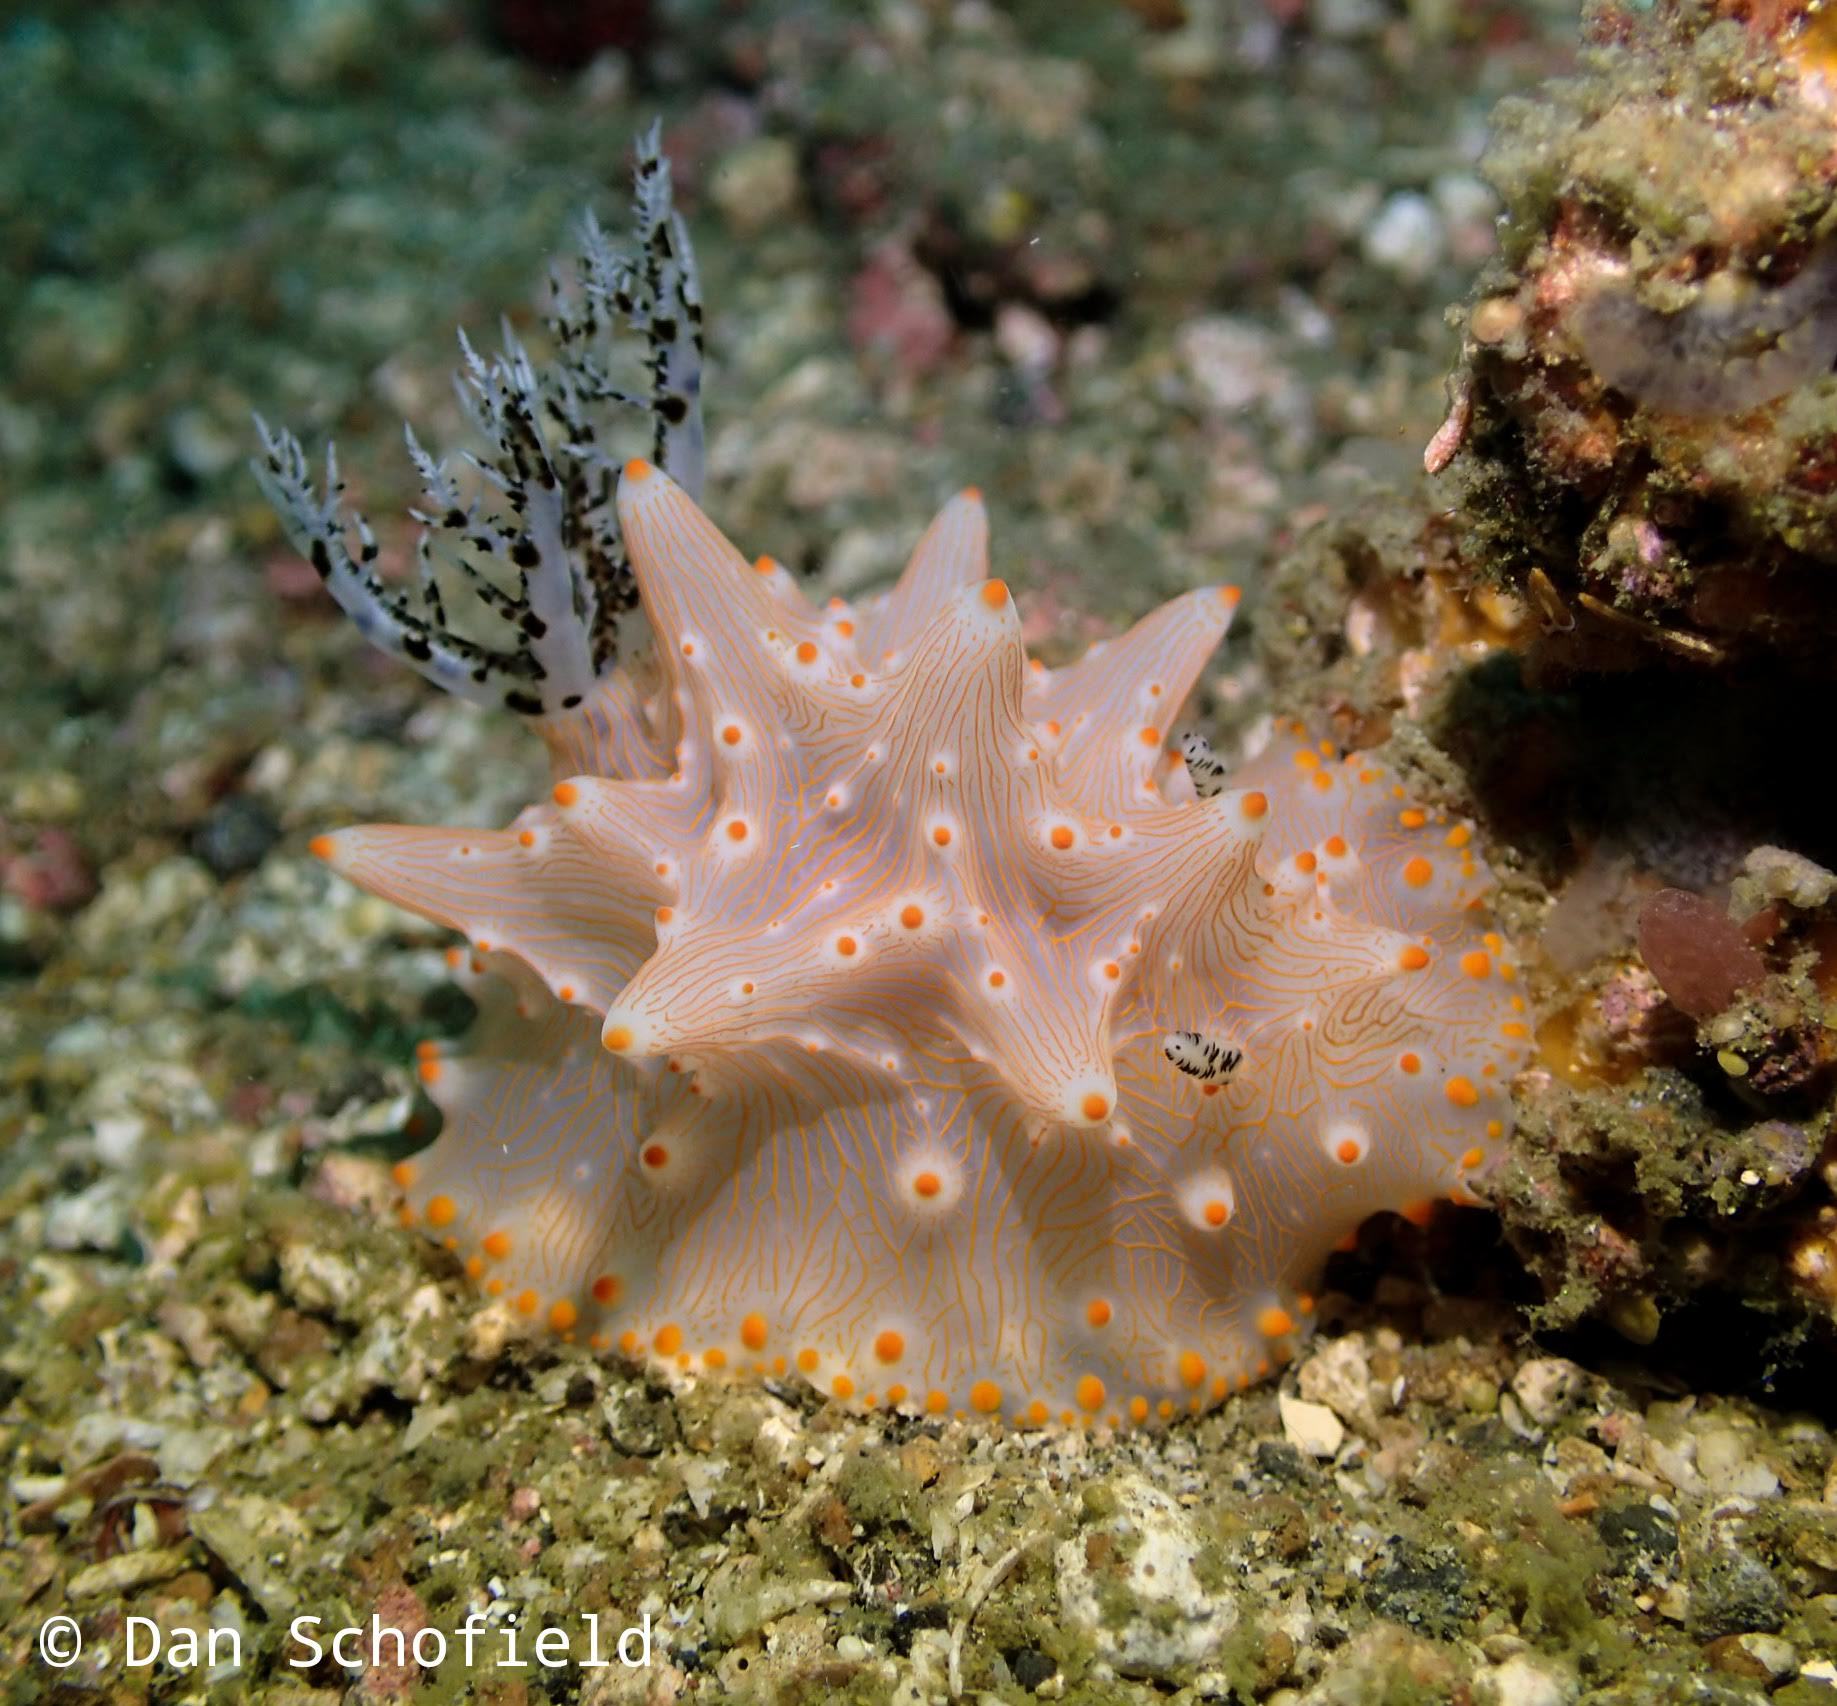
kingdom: Animalia
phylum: Mollusca
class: Gastropoda
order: Nudibranchia
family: Discodorididae
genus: Halgerda
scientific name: Halgerda batangas
